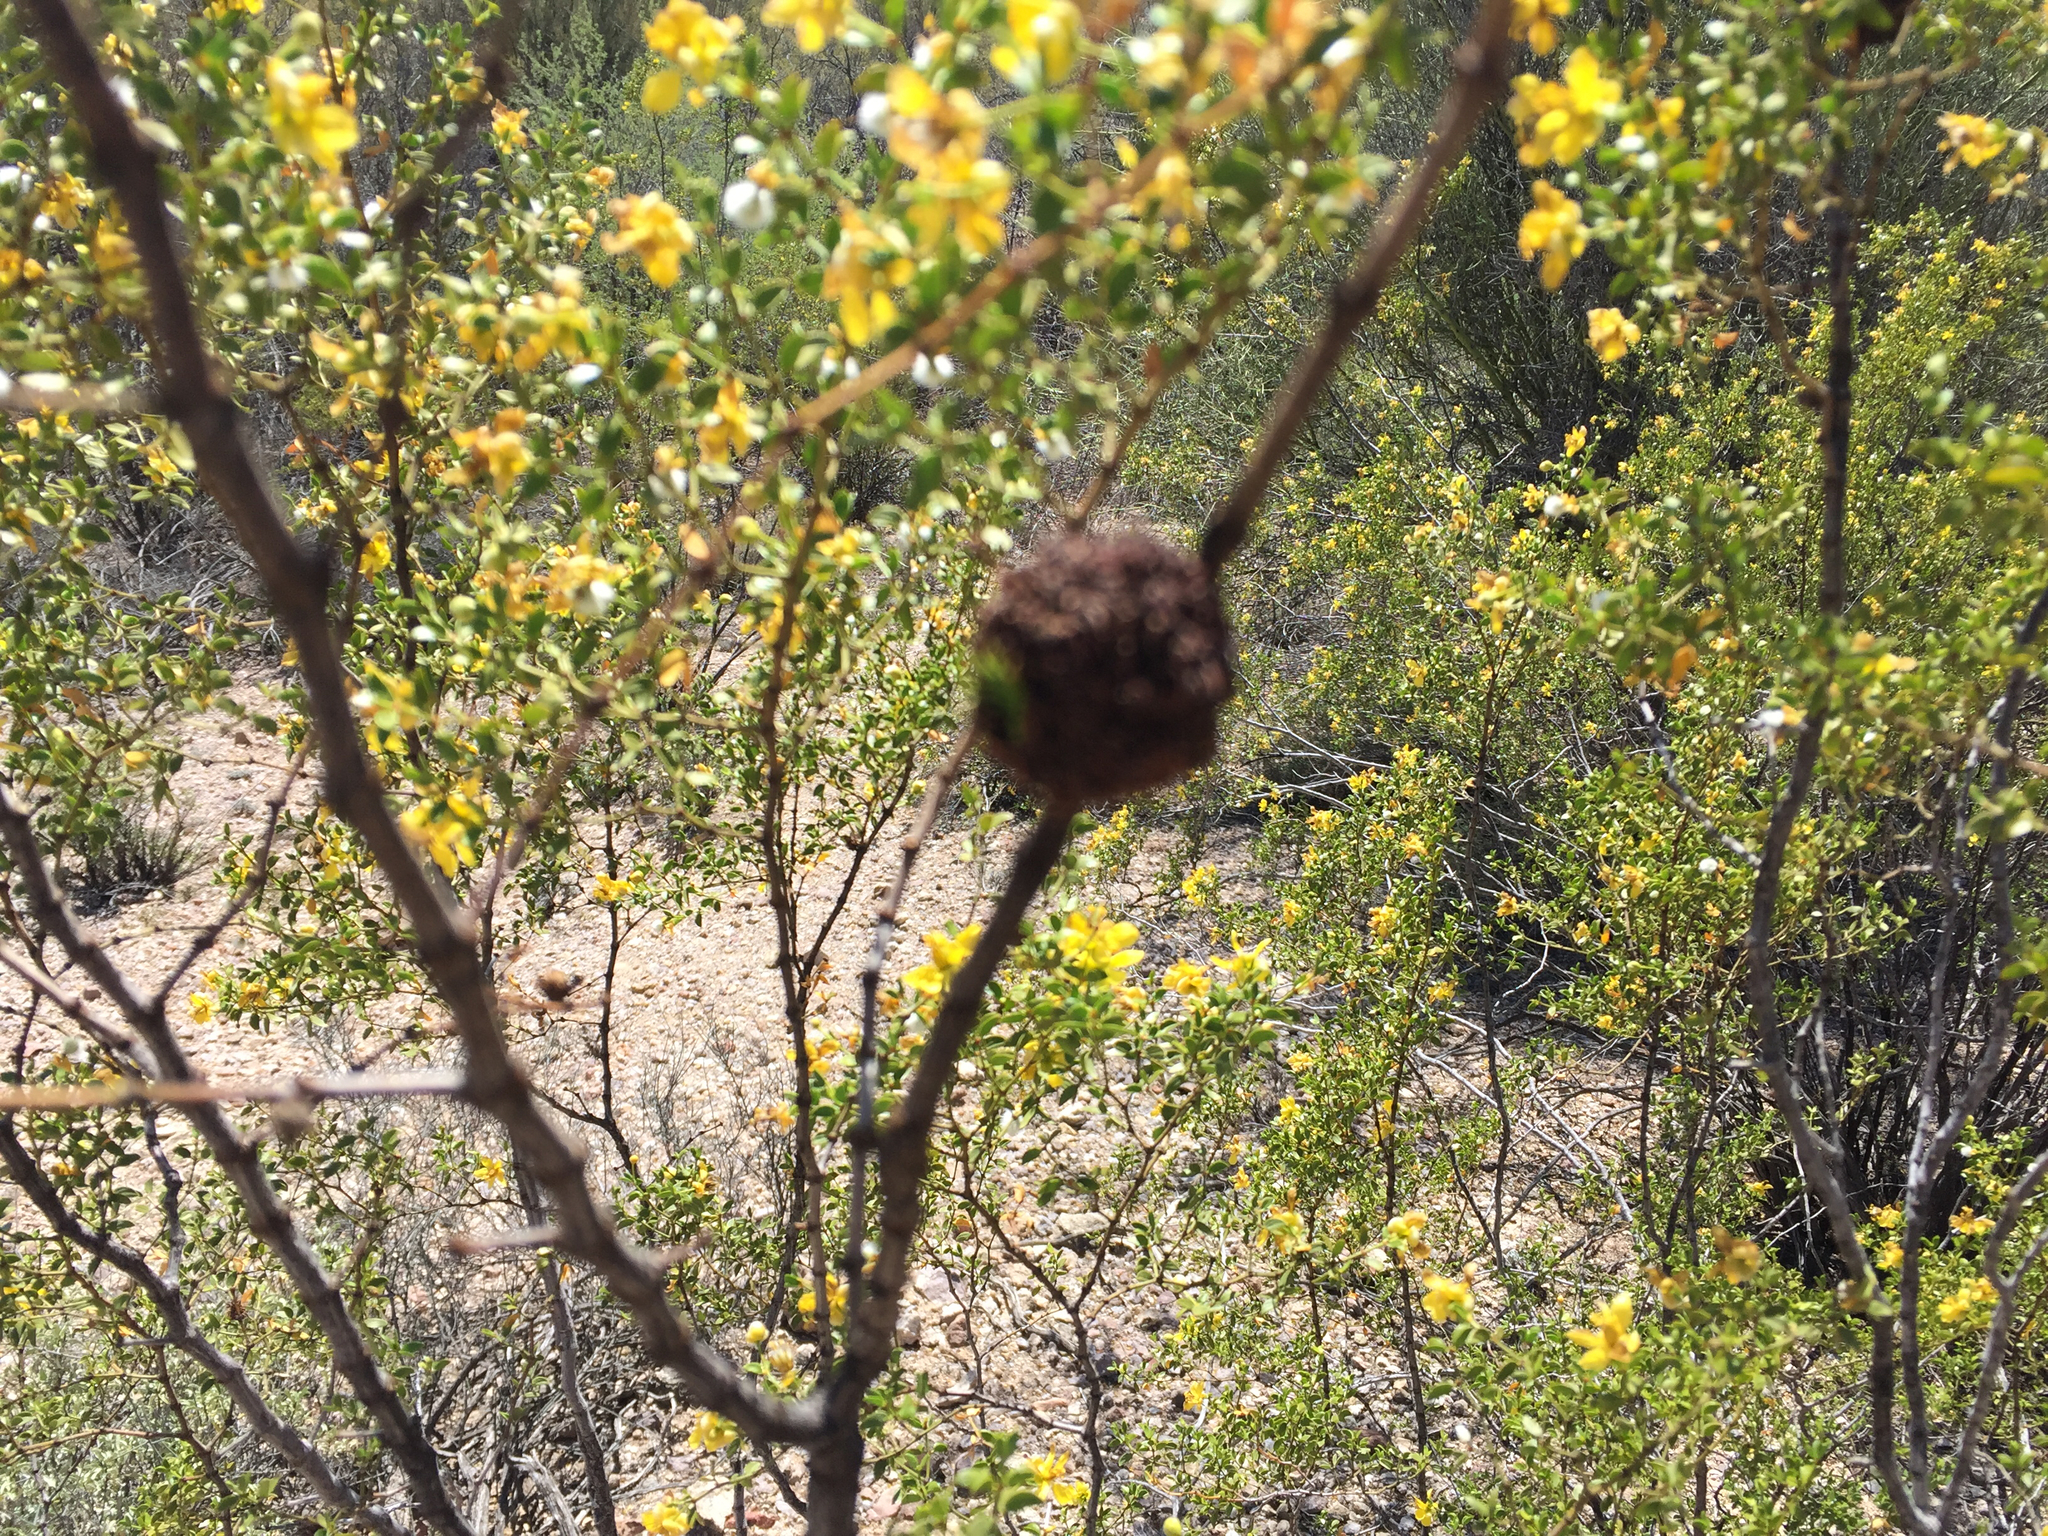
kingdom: Animalia
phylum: Arthropoda
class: Insecta
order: Diptera
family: Cecidomyiidae
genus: Asphondylia
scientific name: Asphondylia auripila
